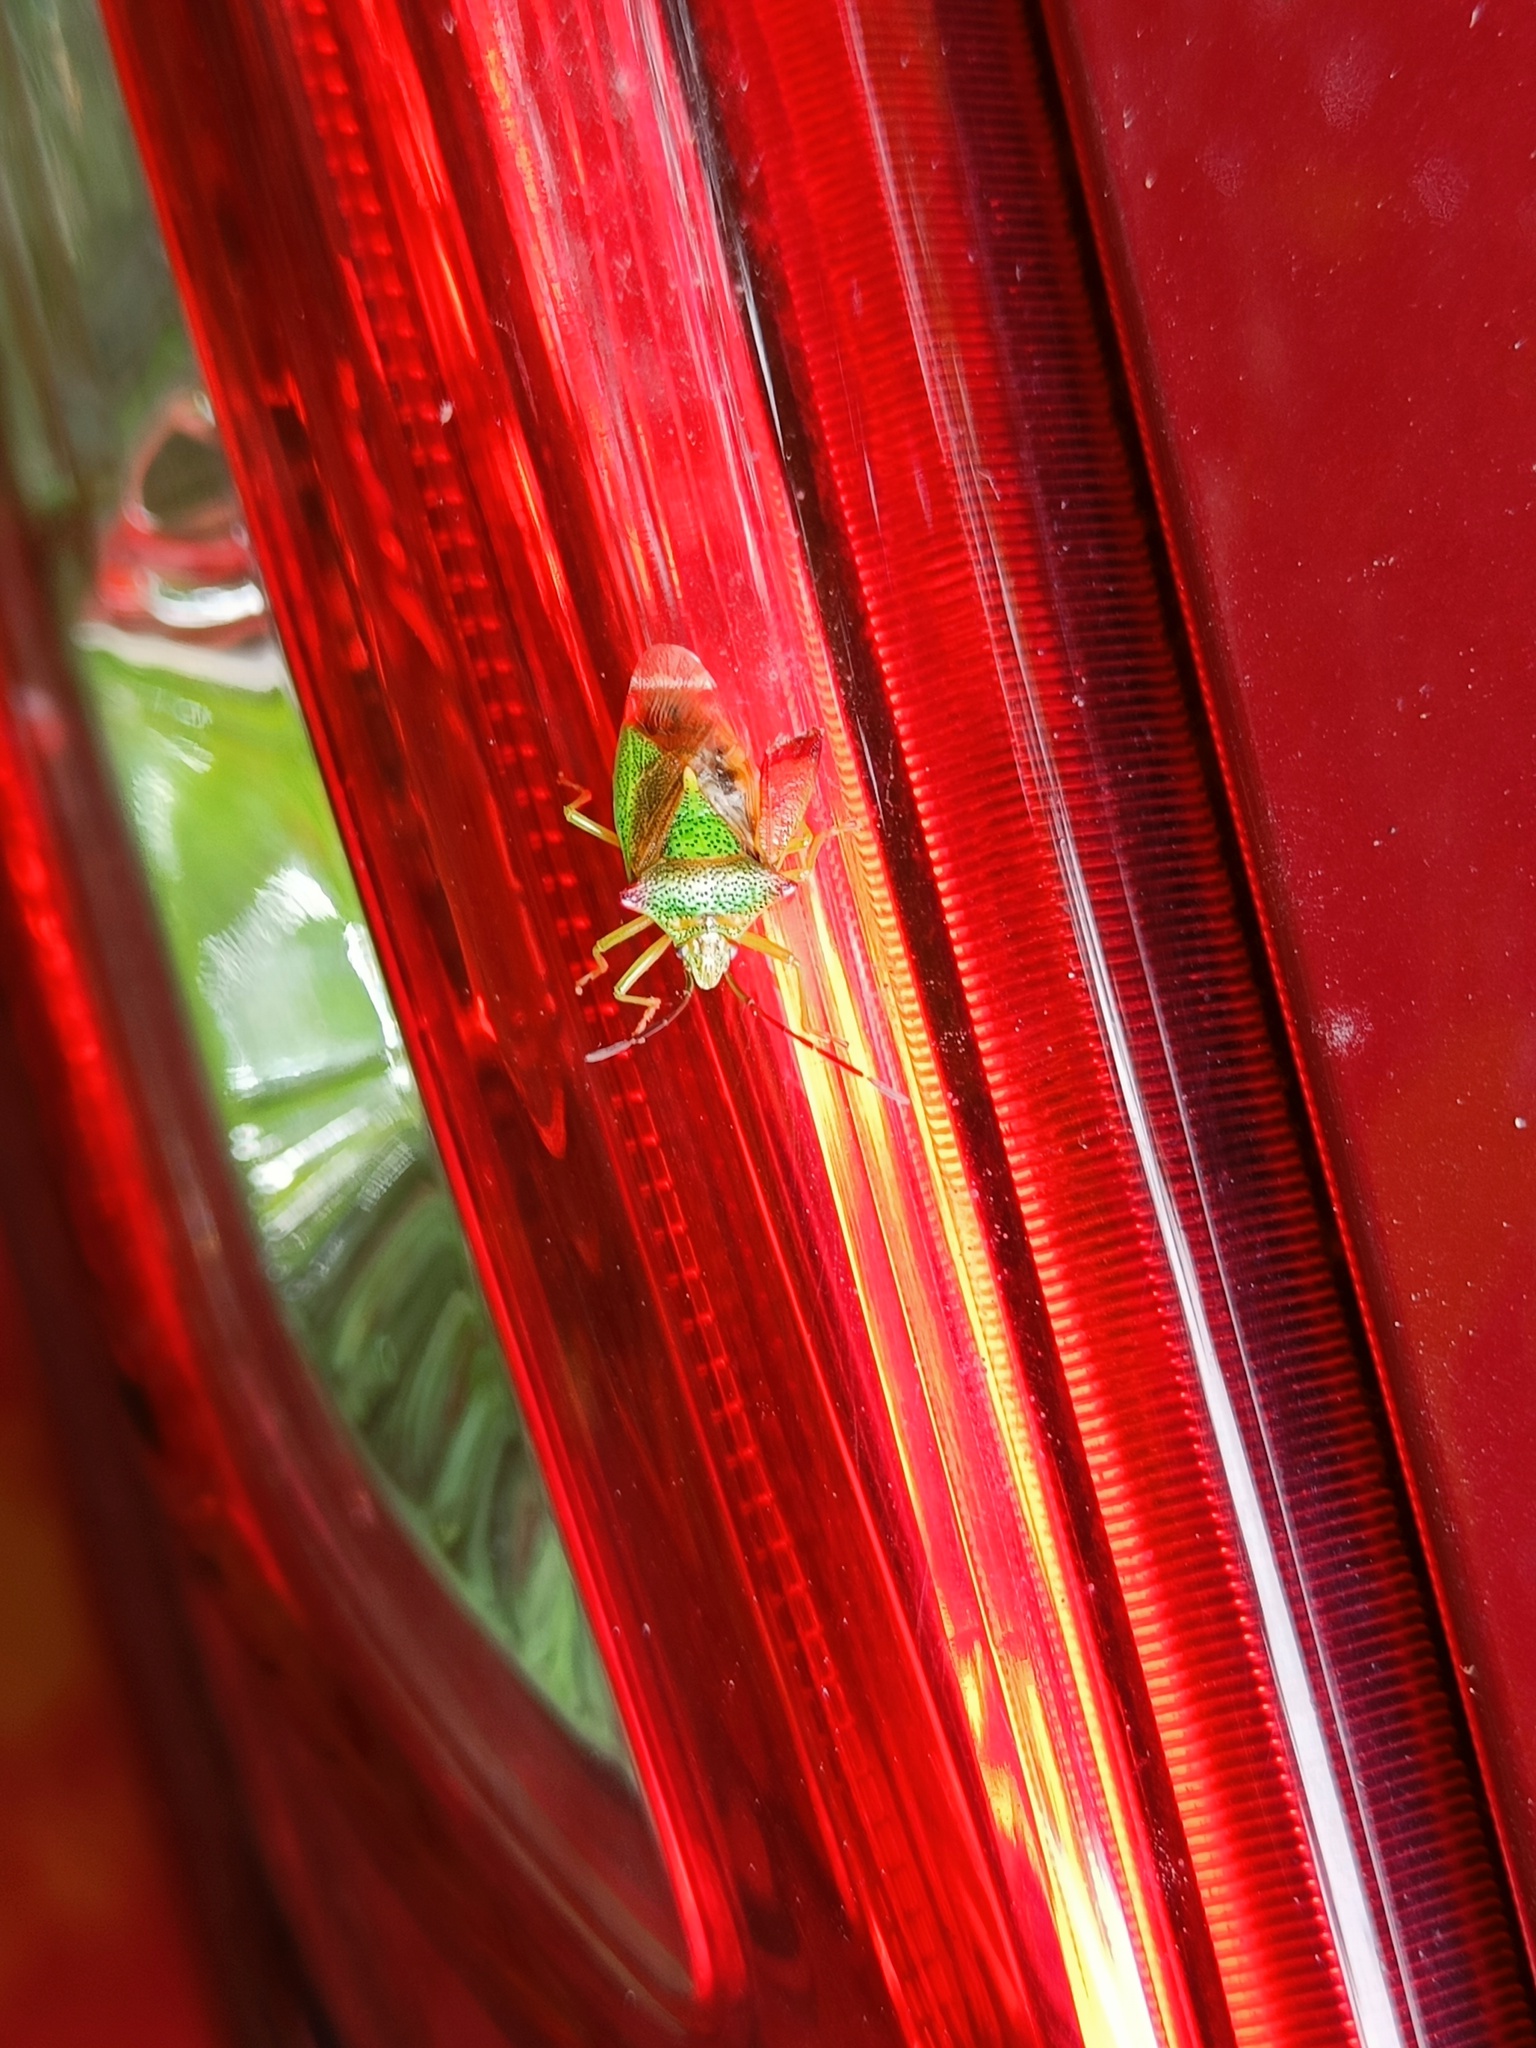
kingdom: Animalia
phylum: Arthropoda
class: Insecta
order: Hemiptera
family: Acanthosomatidae
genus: Acanthosoma
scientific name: Acanthosoma haemorrhoidale
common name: Hawthorn shieldbug
